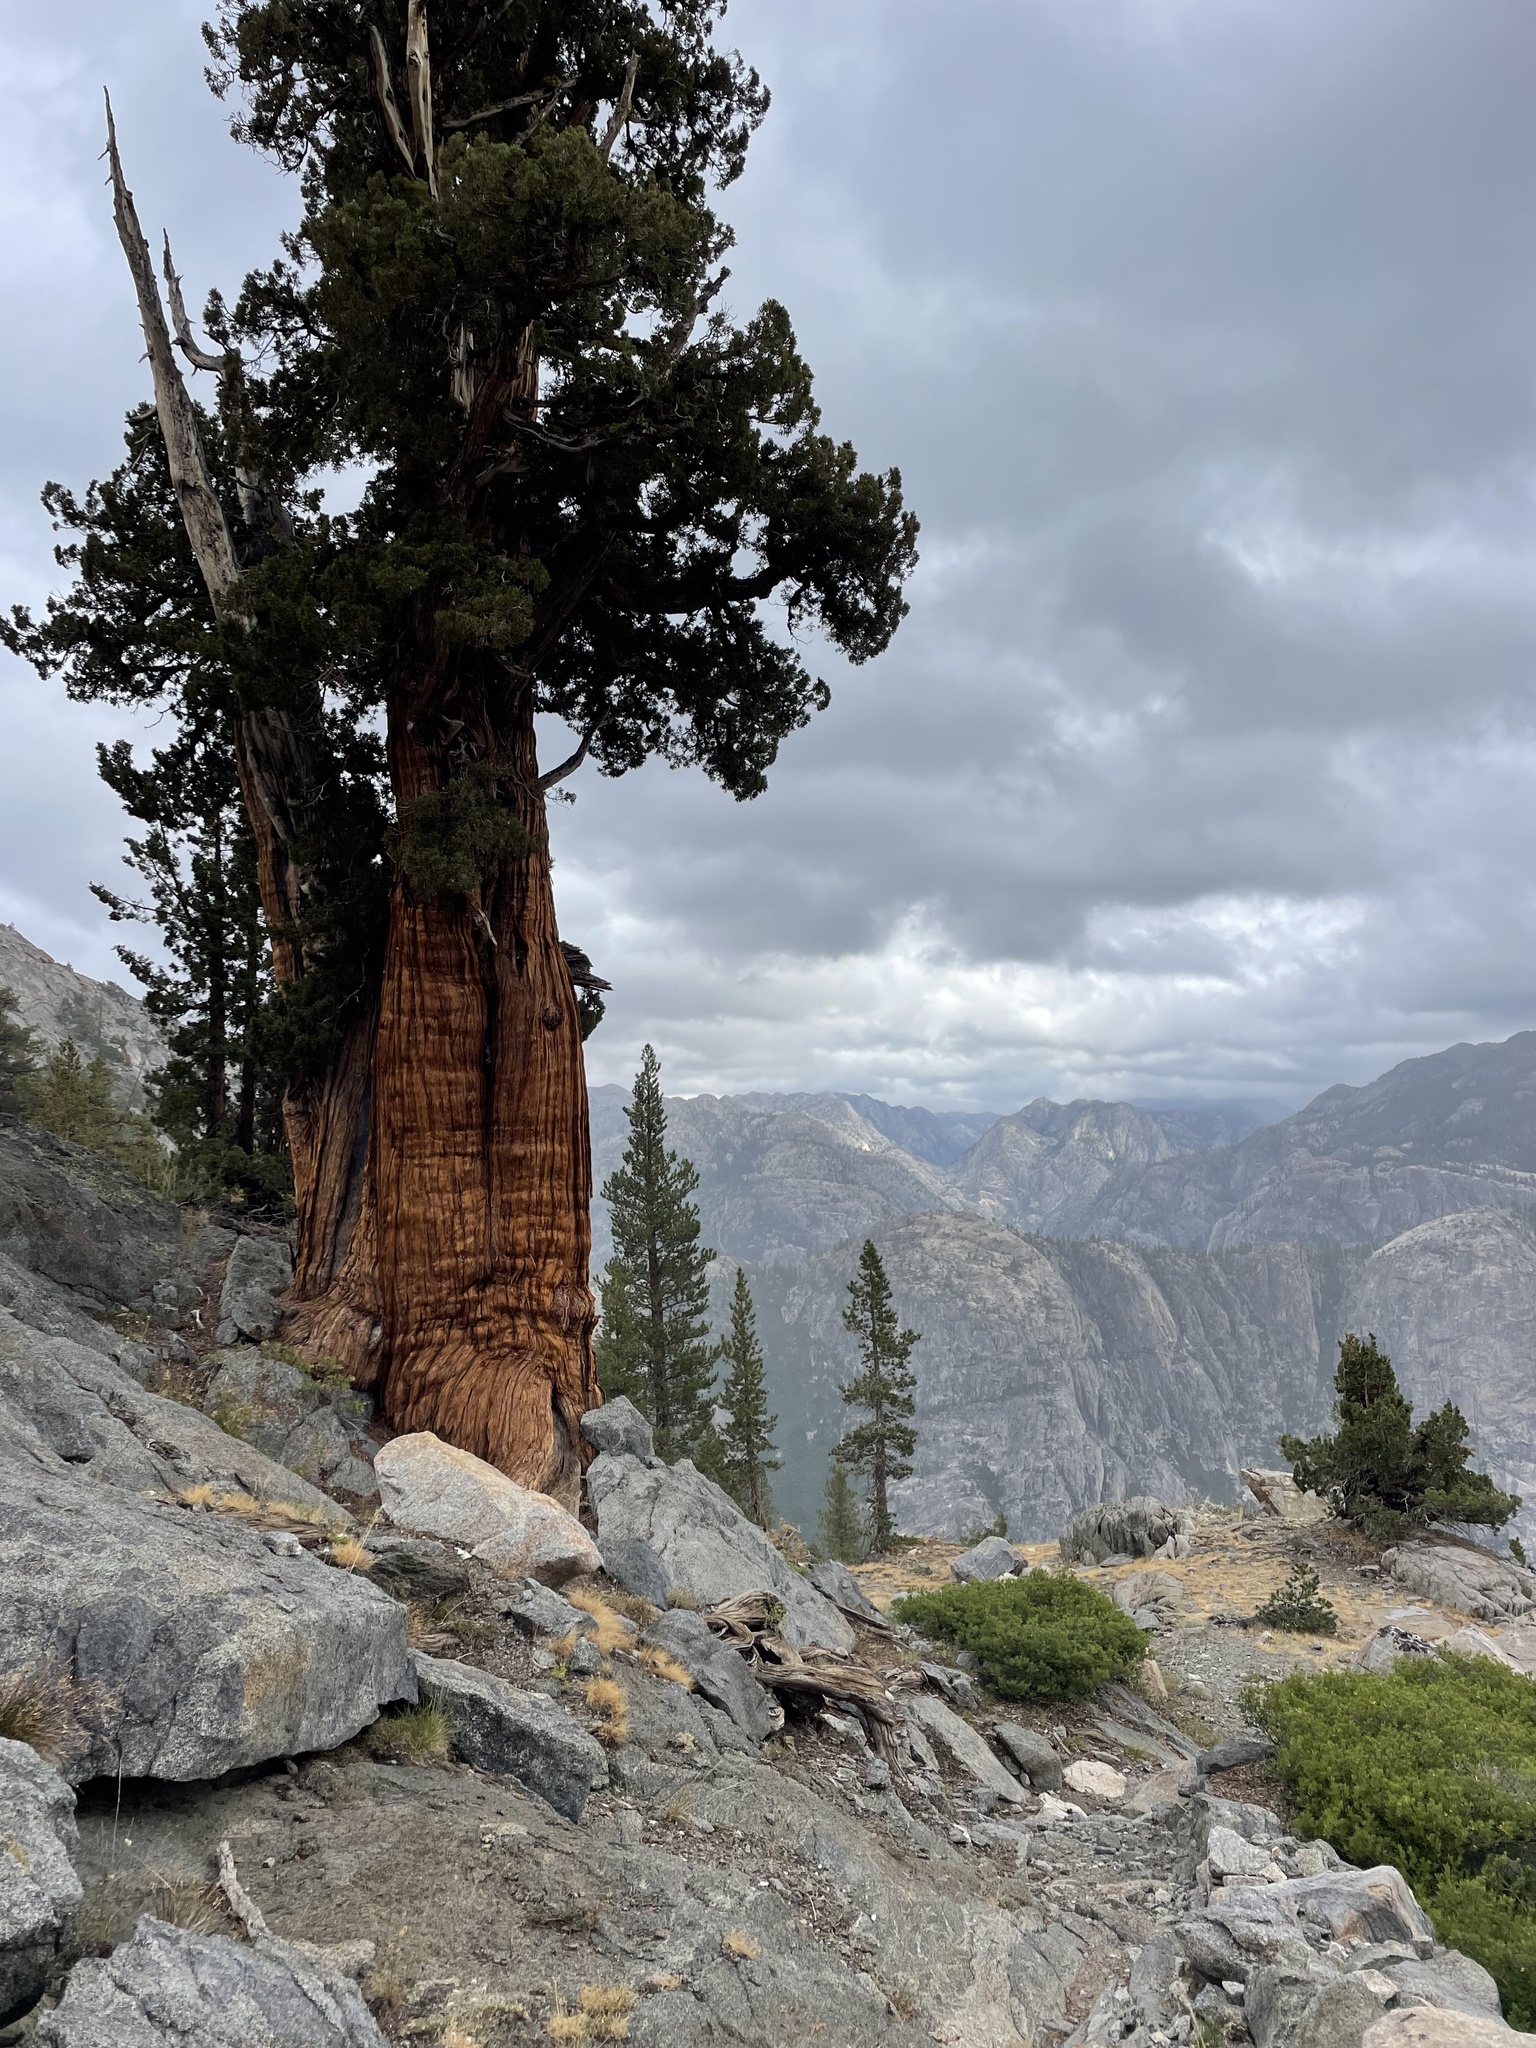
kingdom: Plantae
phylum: Tracheophyta
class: Pinopsida
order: Pinales
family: Cupressaceae
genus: Juniperus
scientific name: Juniperus occidentalis
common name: Western juniper
